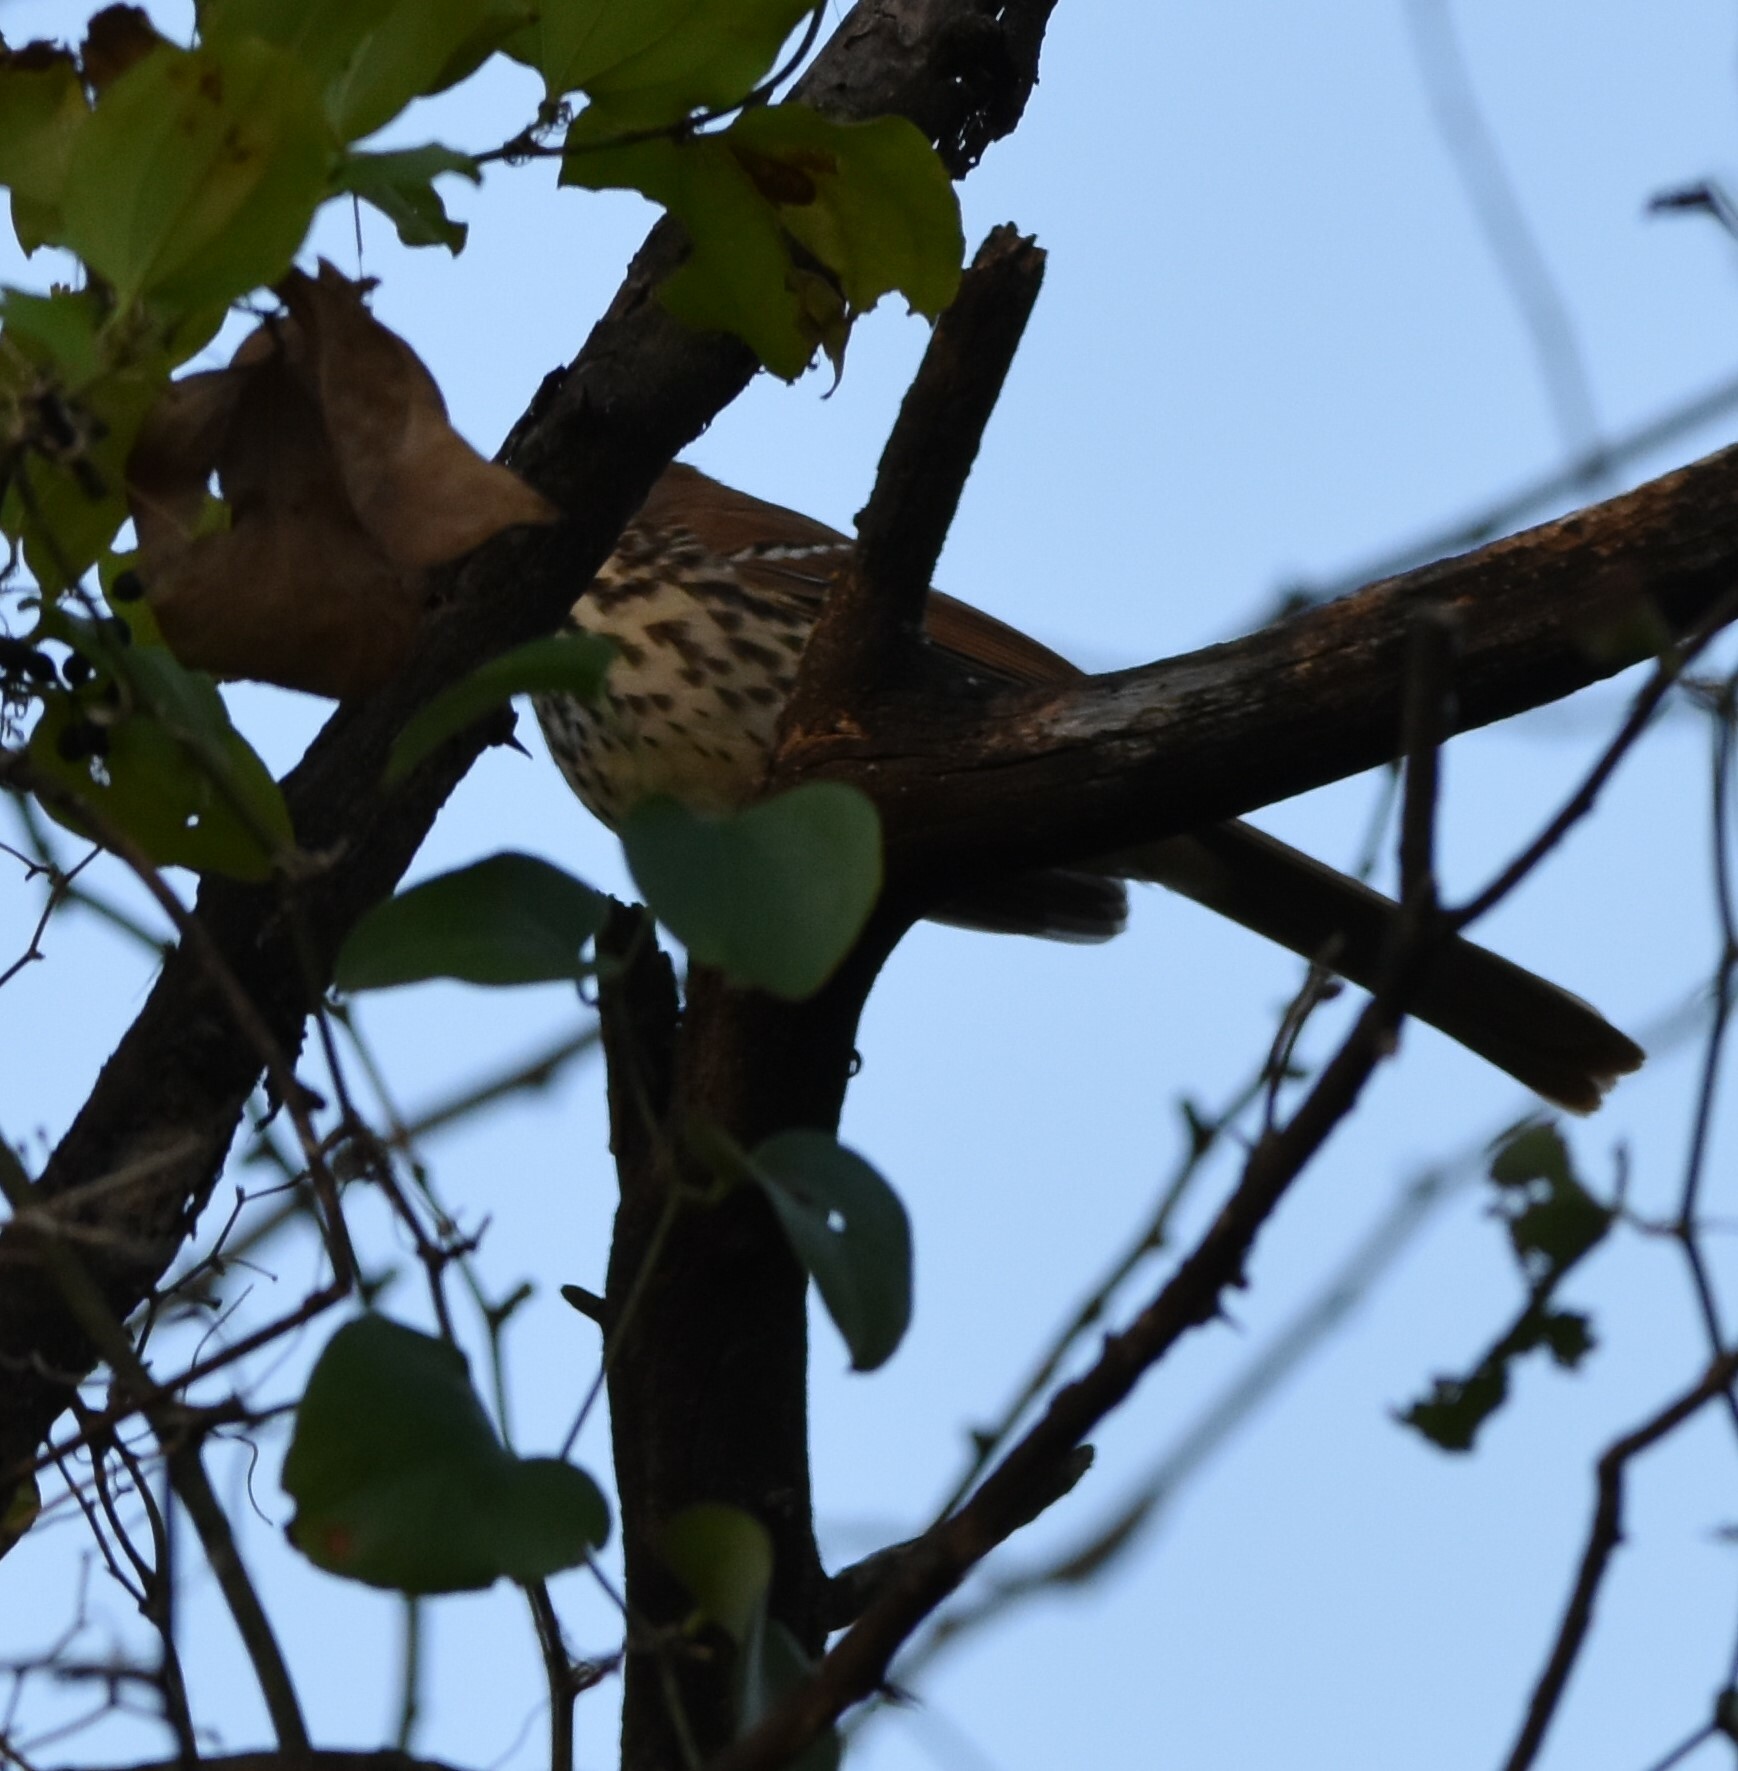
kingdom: Animalia
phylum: Chordata
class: Aves
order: Passeriformes
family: Mimidae
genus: Toxostoma
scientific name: Toxostoma rufum
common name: Brown thrasher
